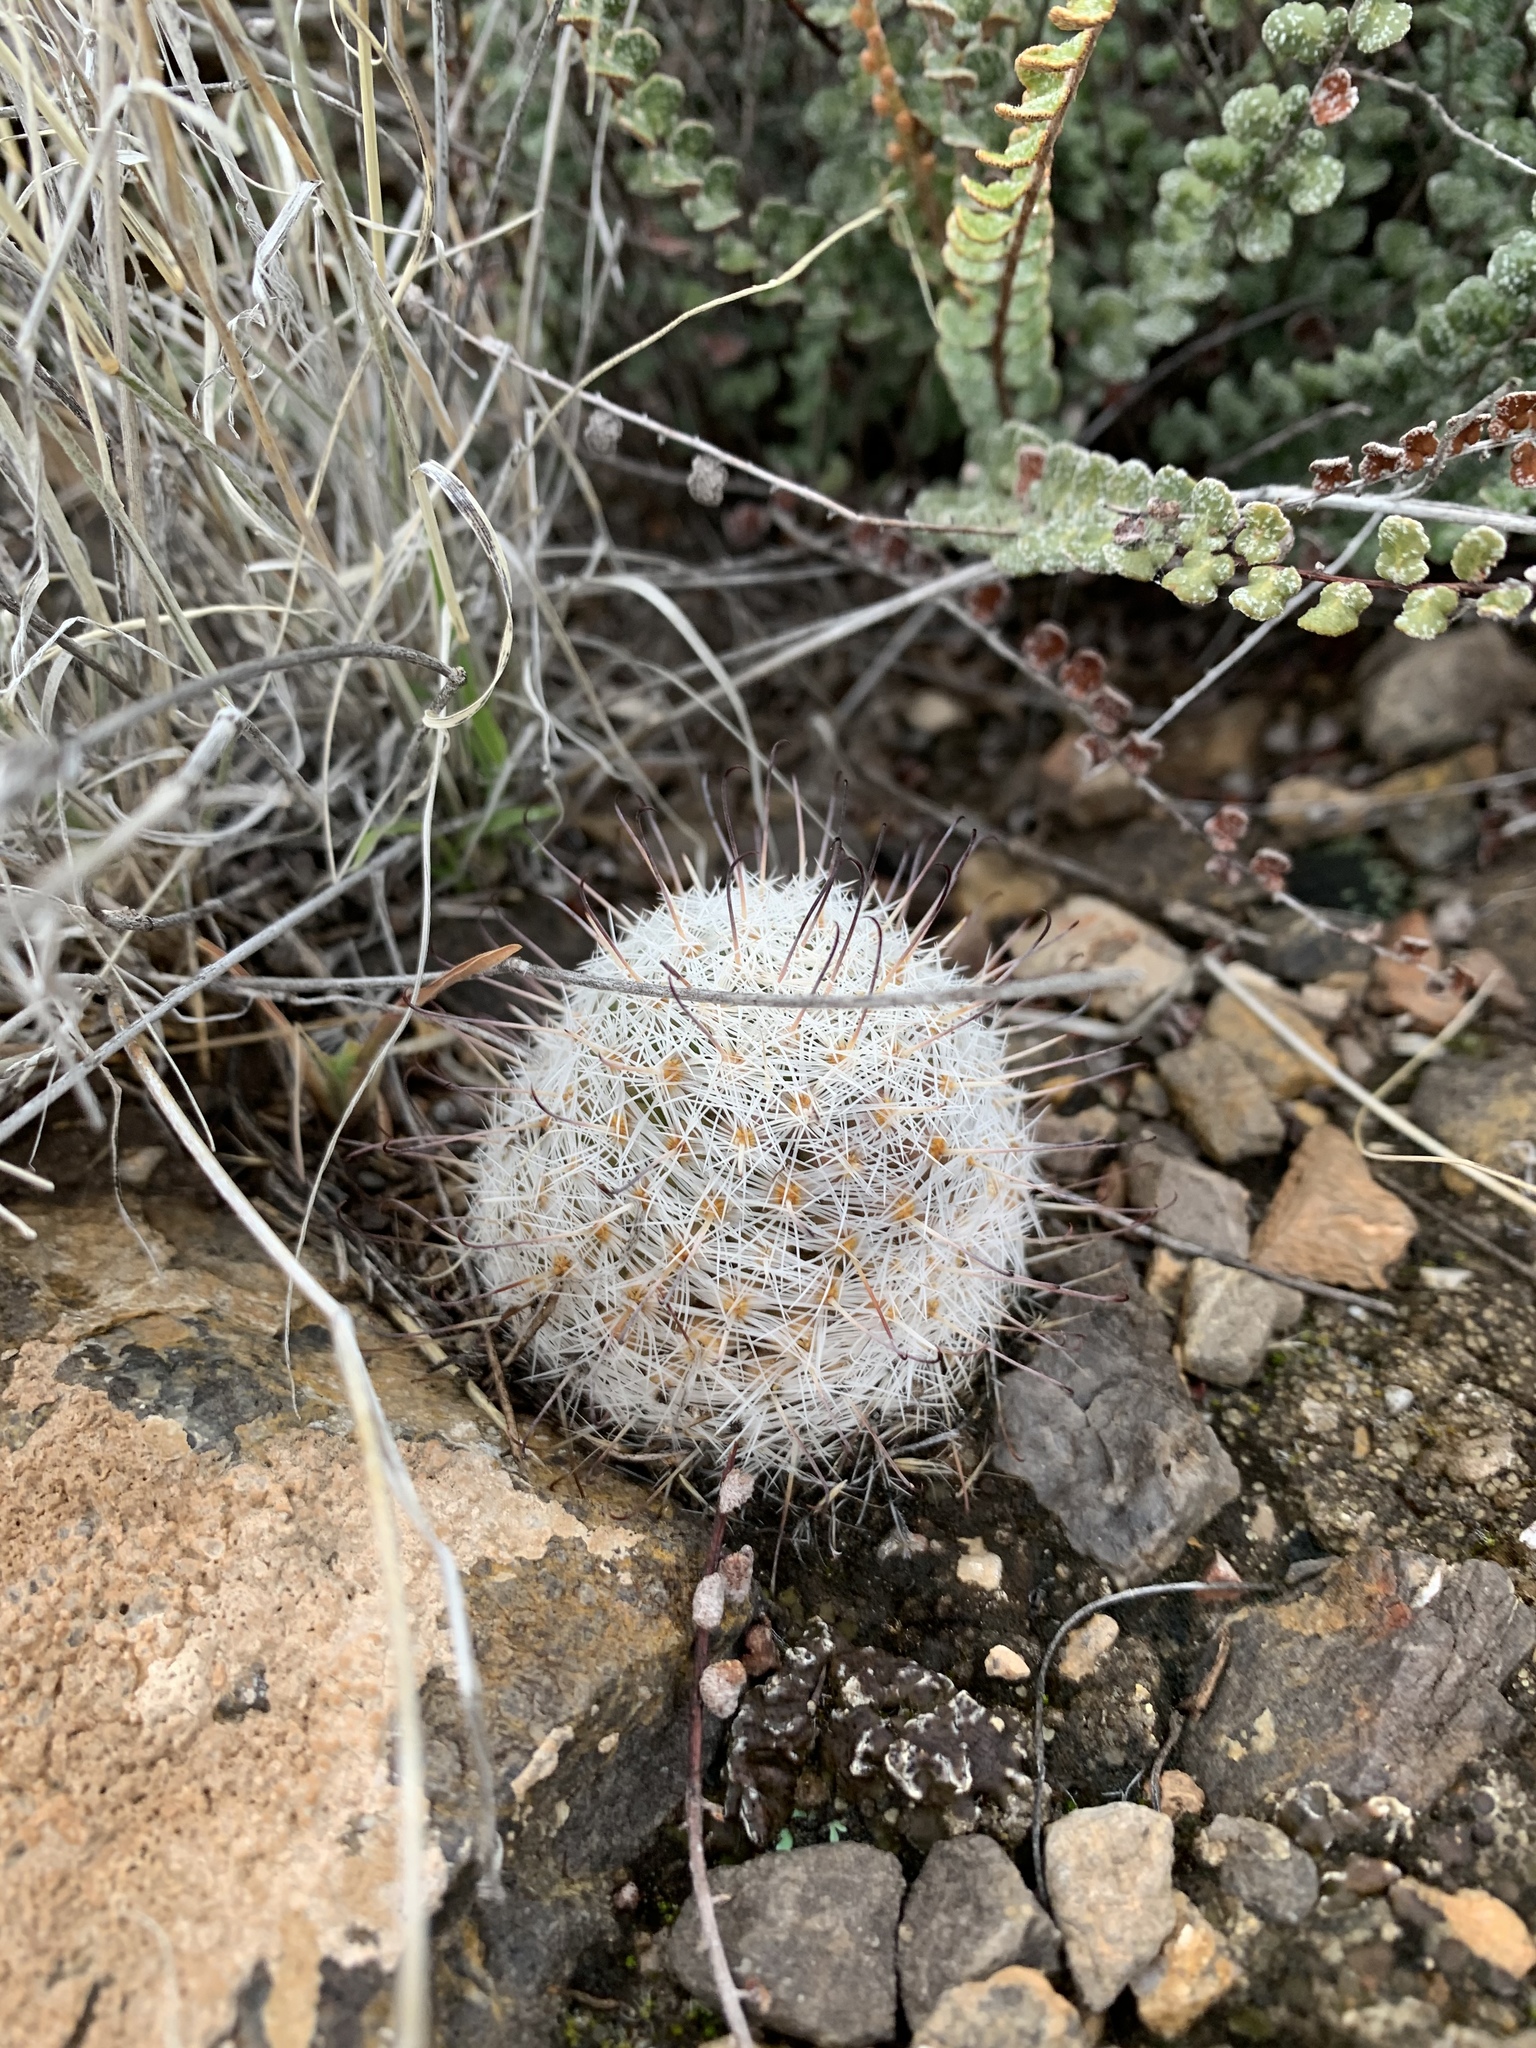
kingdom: Plantae
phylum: Tracheophyta
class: Magnoliopsida
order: Caryophyllales
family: Cactaceae
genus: Cochemiea
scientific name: Cochemiea grahamii
